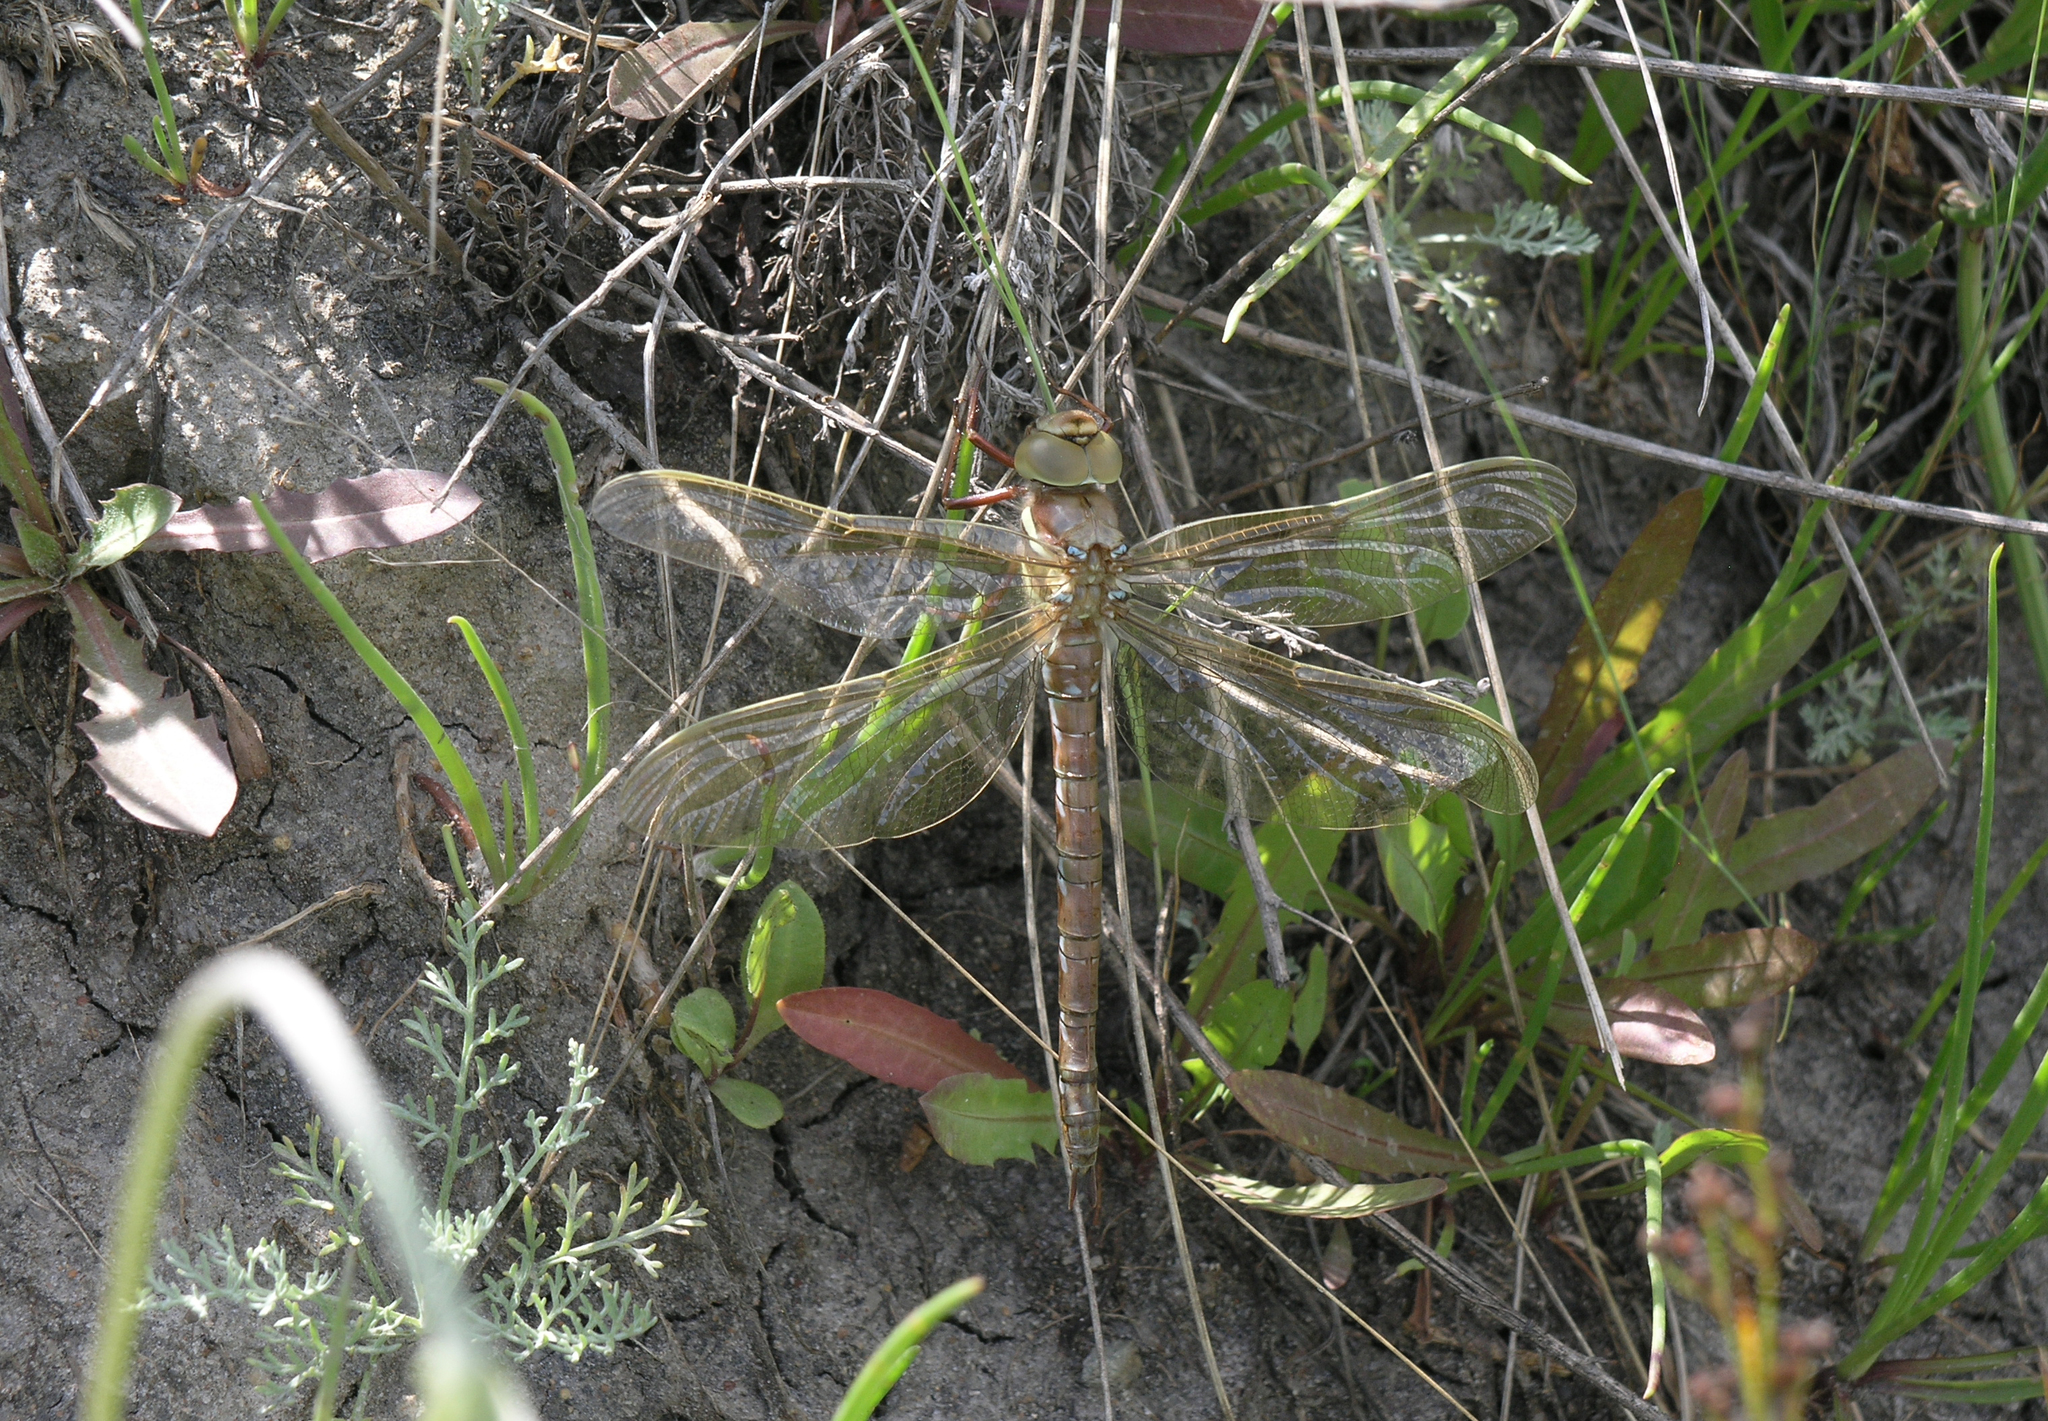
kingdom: Animalia
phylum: Arthropoda
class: Insecta
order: Odonata
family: Aeshnidae
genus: Aeshna
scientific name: Aeshna grandis
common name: Brown hawker
